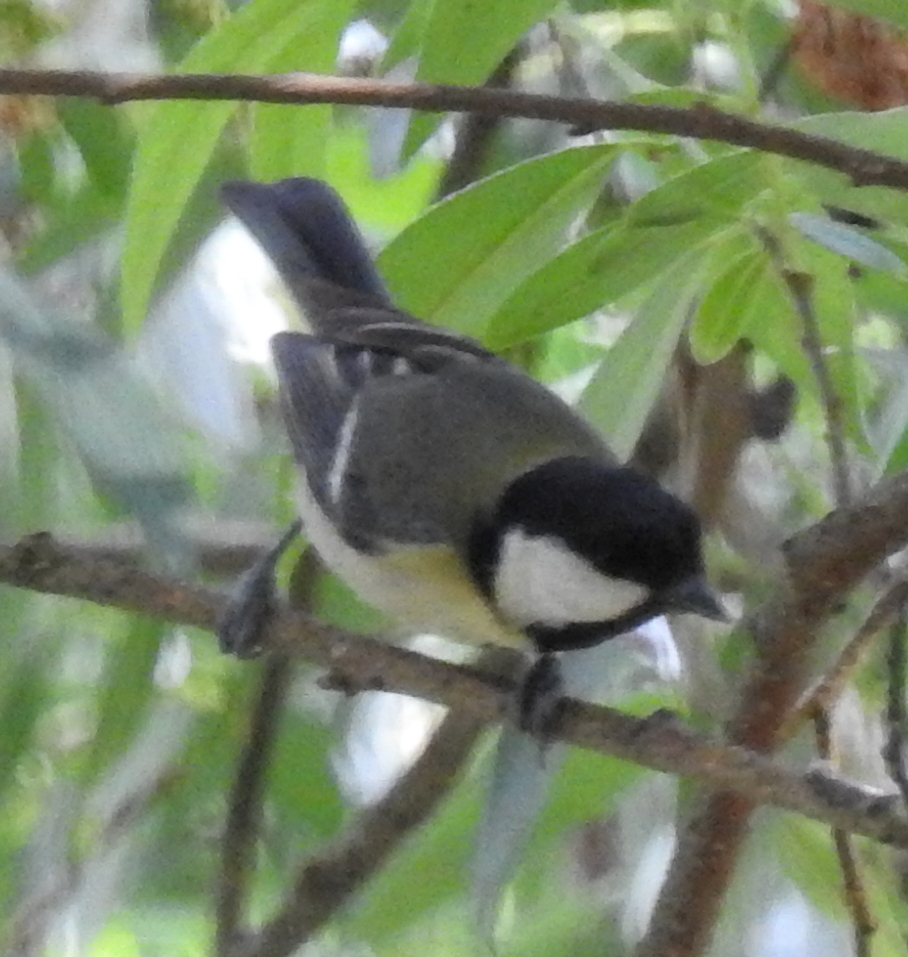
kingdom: Animalia
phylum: Chordata
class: Aves
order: Passeriformes
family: Paridae
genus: Parus
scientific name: Parus major
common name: Great tit
